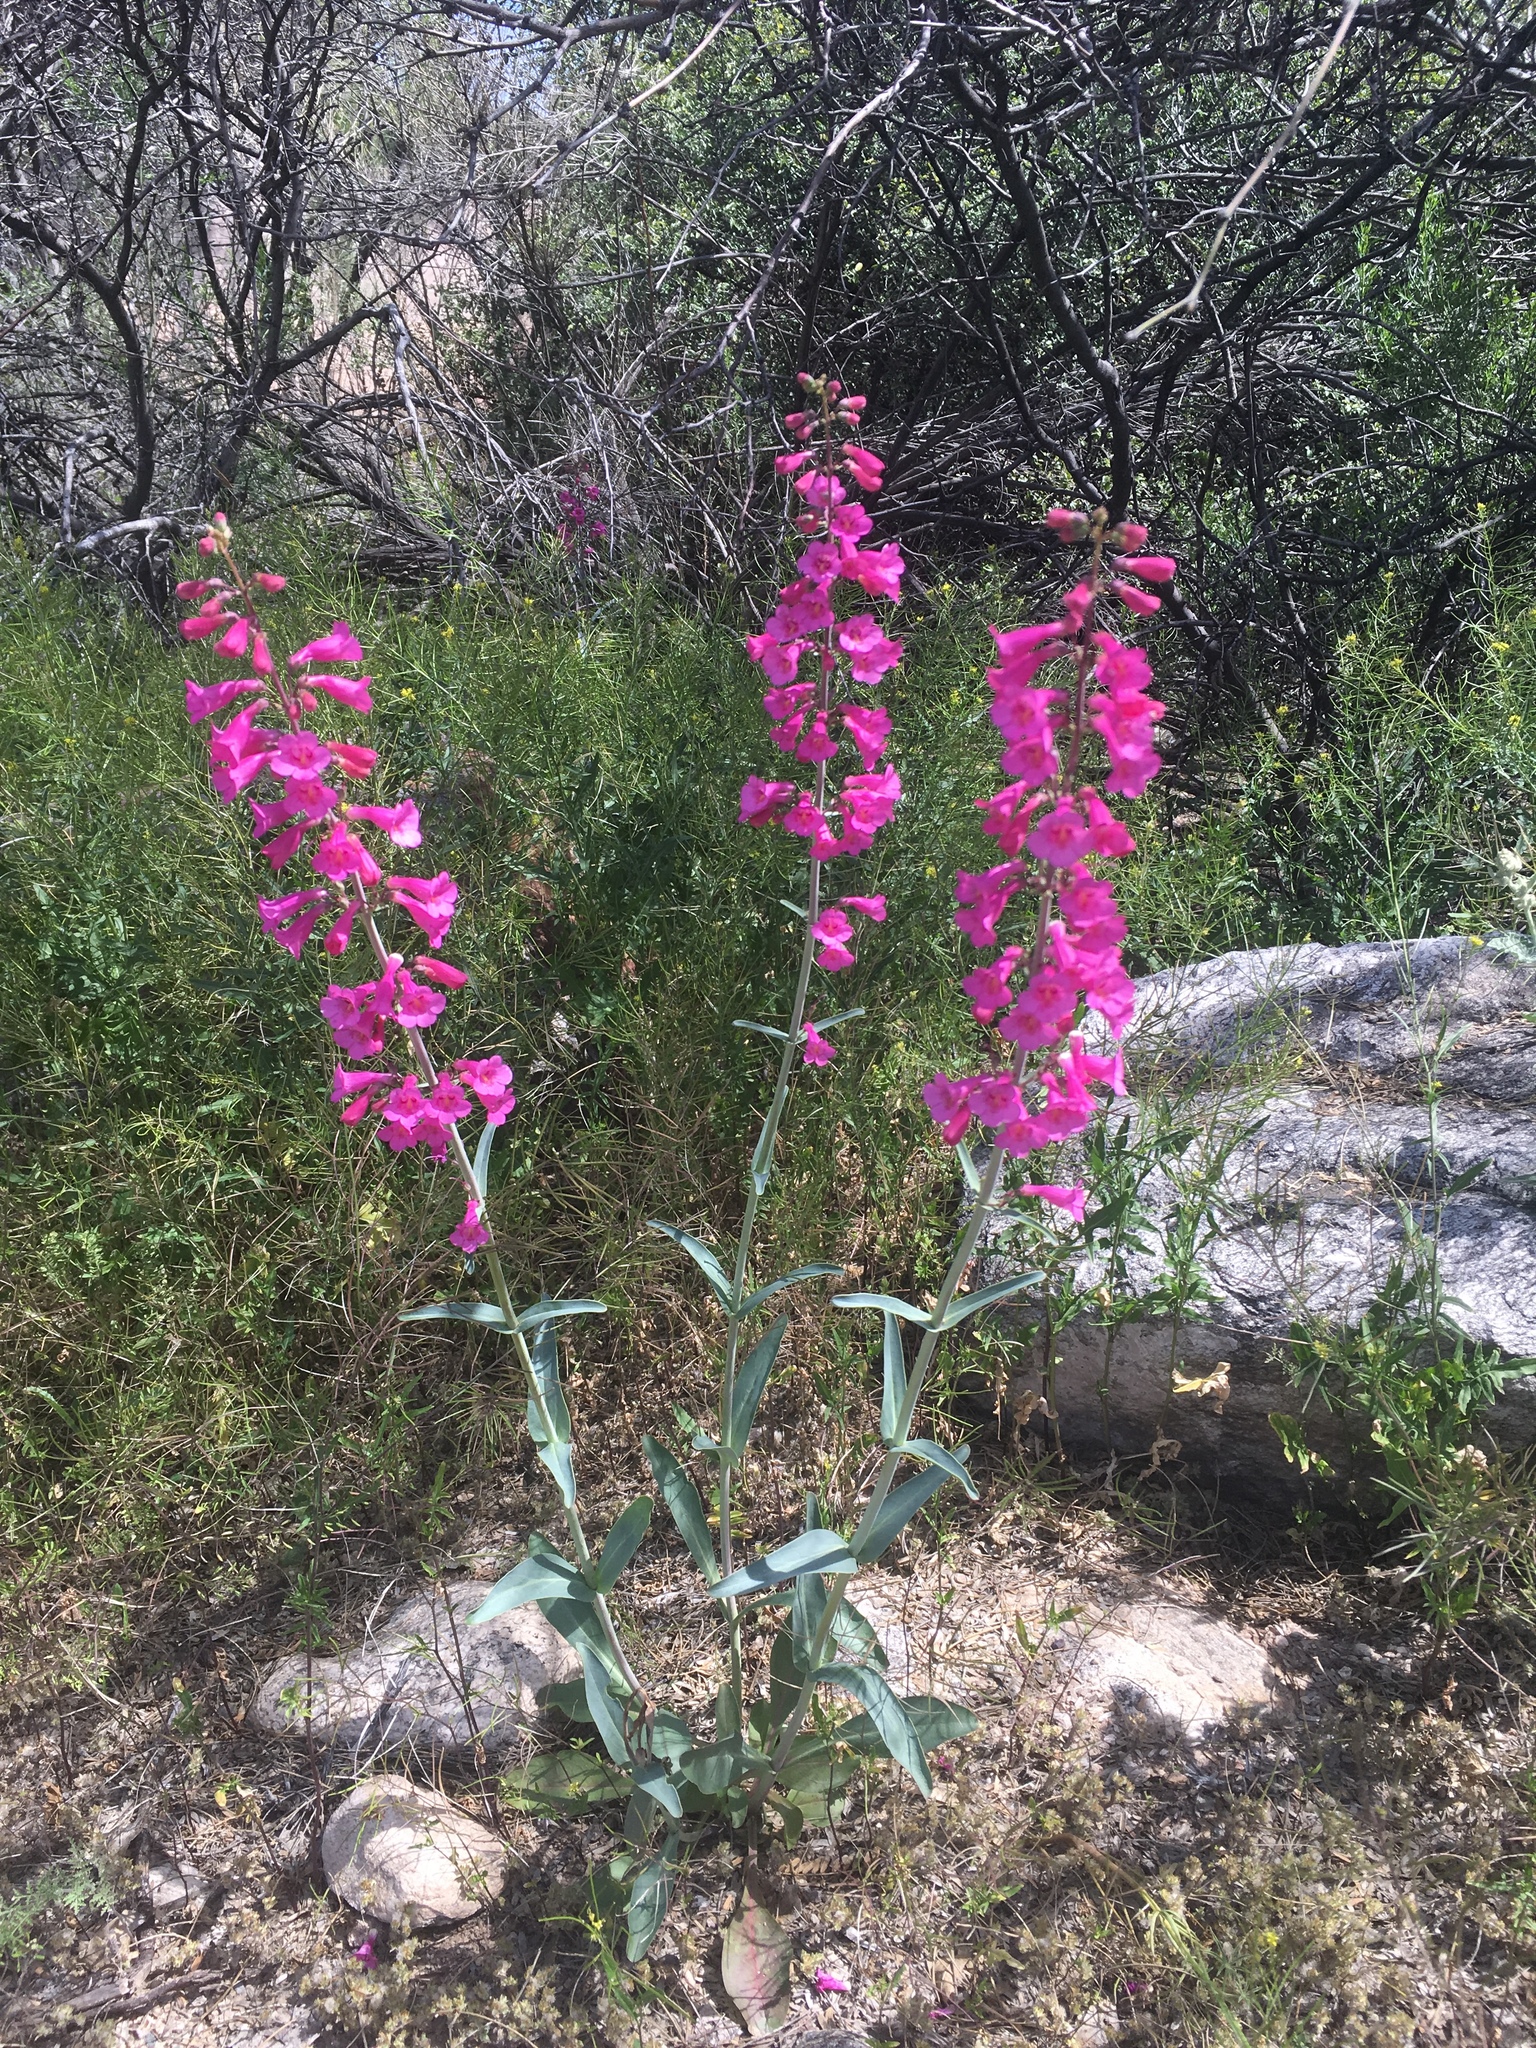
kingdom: Plantae
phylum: Tracheophyta
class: Magnoliopsida
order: Lamiales
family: Plantaginaceae
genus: Penstemon
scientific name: Penstemon parryi
